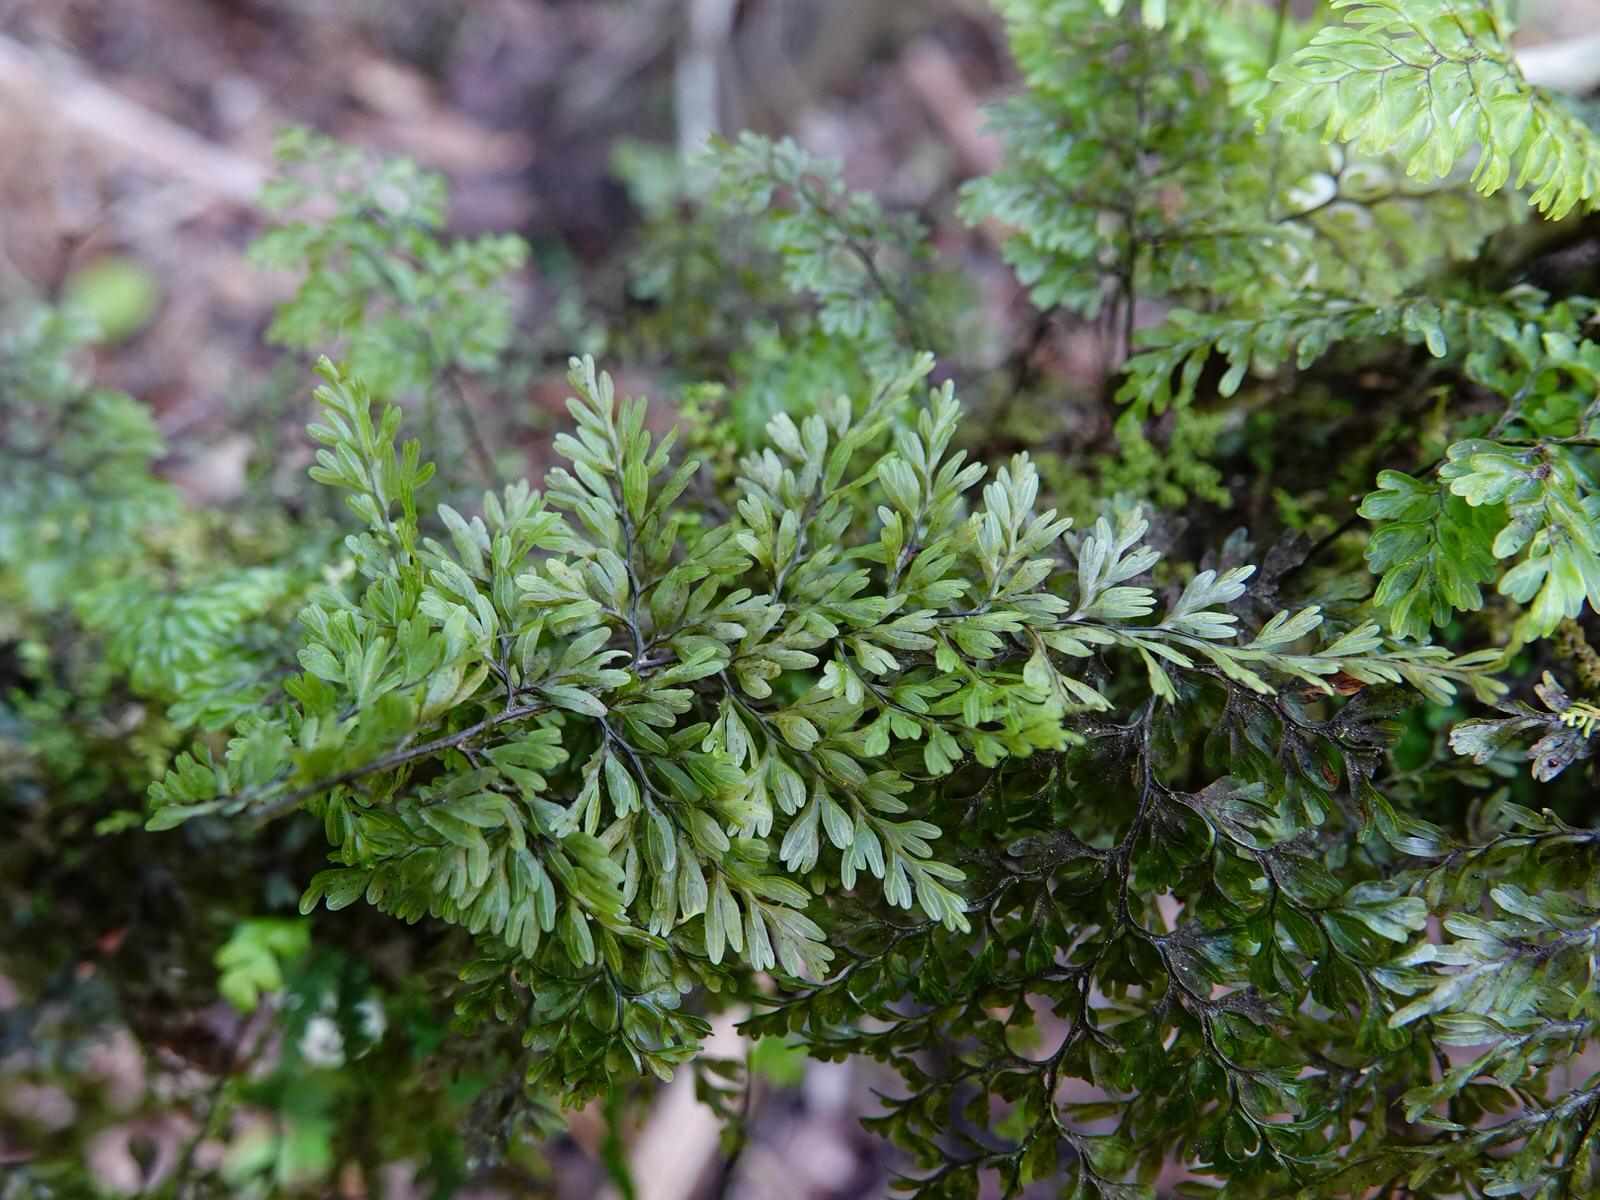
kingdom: Plantae
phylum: Tracheophyta
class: Polypodiopsida
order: Hymenophyllales
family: Hymenophyllaceae
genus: Hymenophyllum
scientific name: Hymenophyllum sanguinolentum
